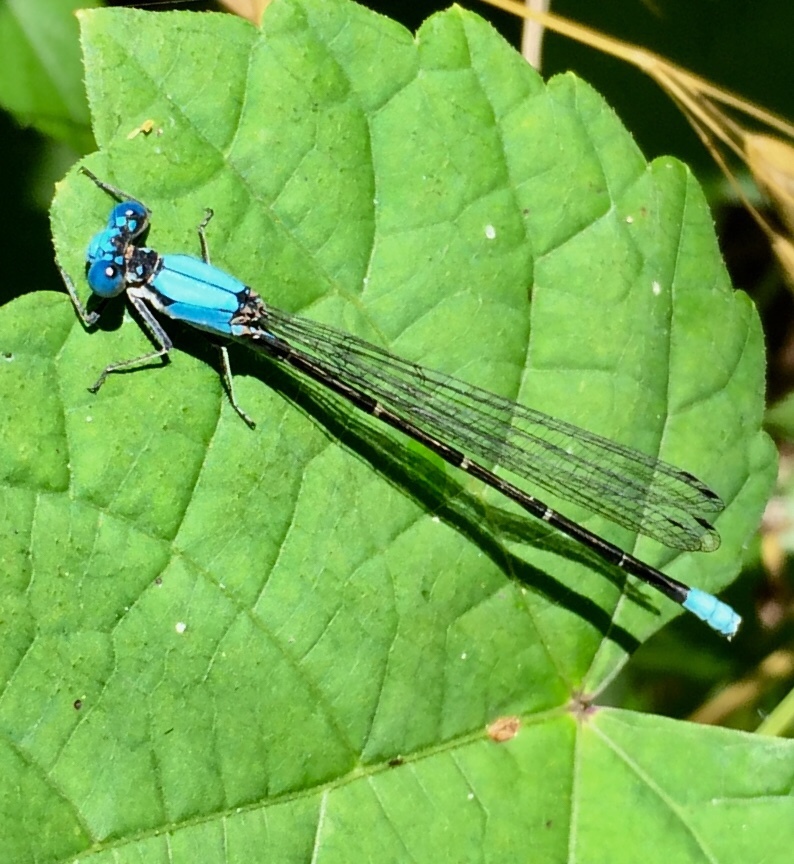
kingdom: Animalia
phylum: Arthropoda
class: Insecta
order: Odonata
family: Coenagrionidae
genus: Argia
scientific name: Argia apicalis
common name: Blue-fronted dancer
